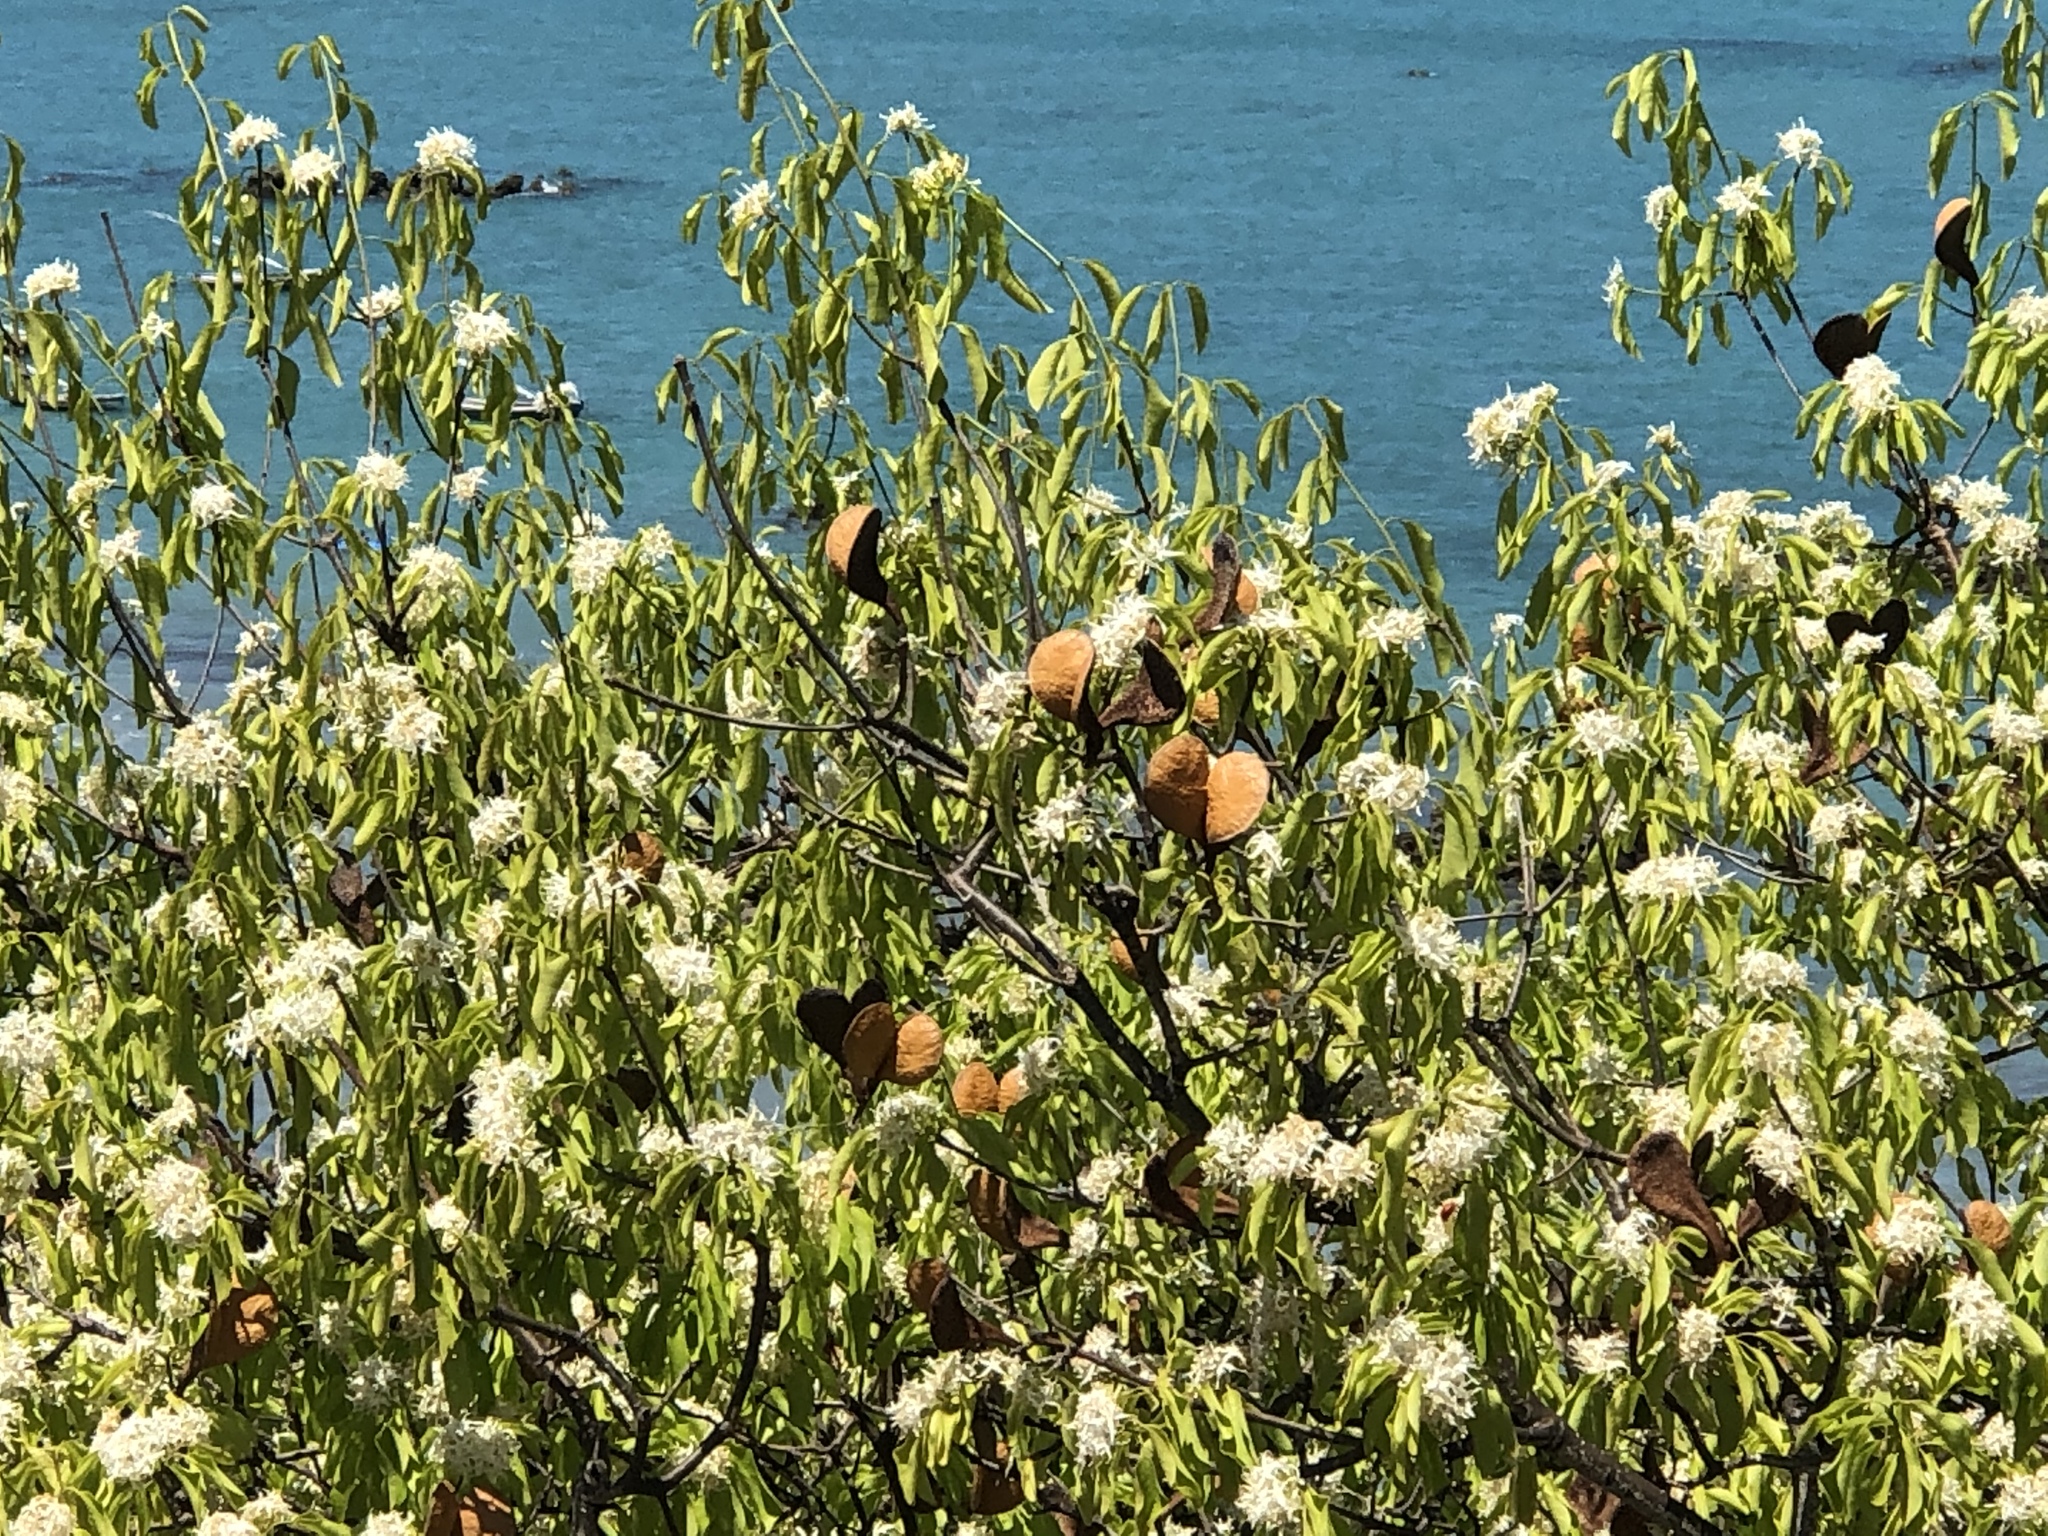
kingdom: Plantae
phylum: Tracheophyta
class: Magnoliopsida
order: Gentianales
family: Apocynaceae
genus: Aspidosperma
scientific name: Aspidosperma pyrifolium
